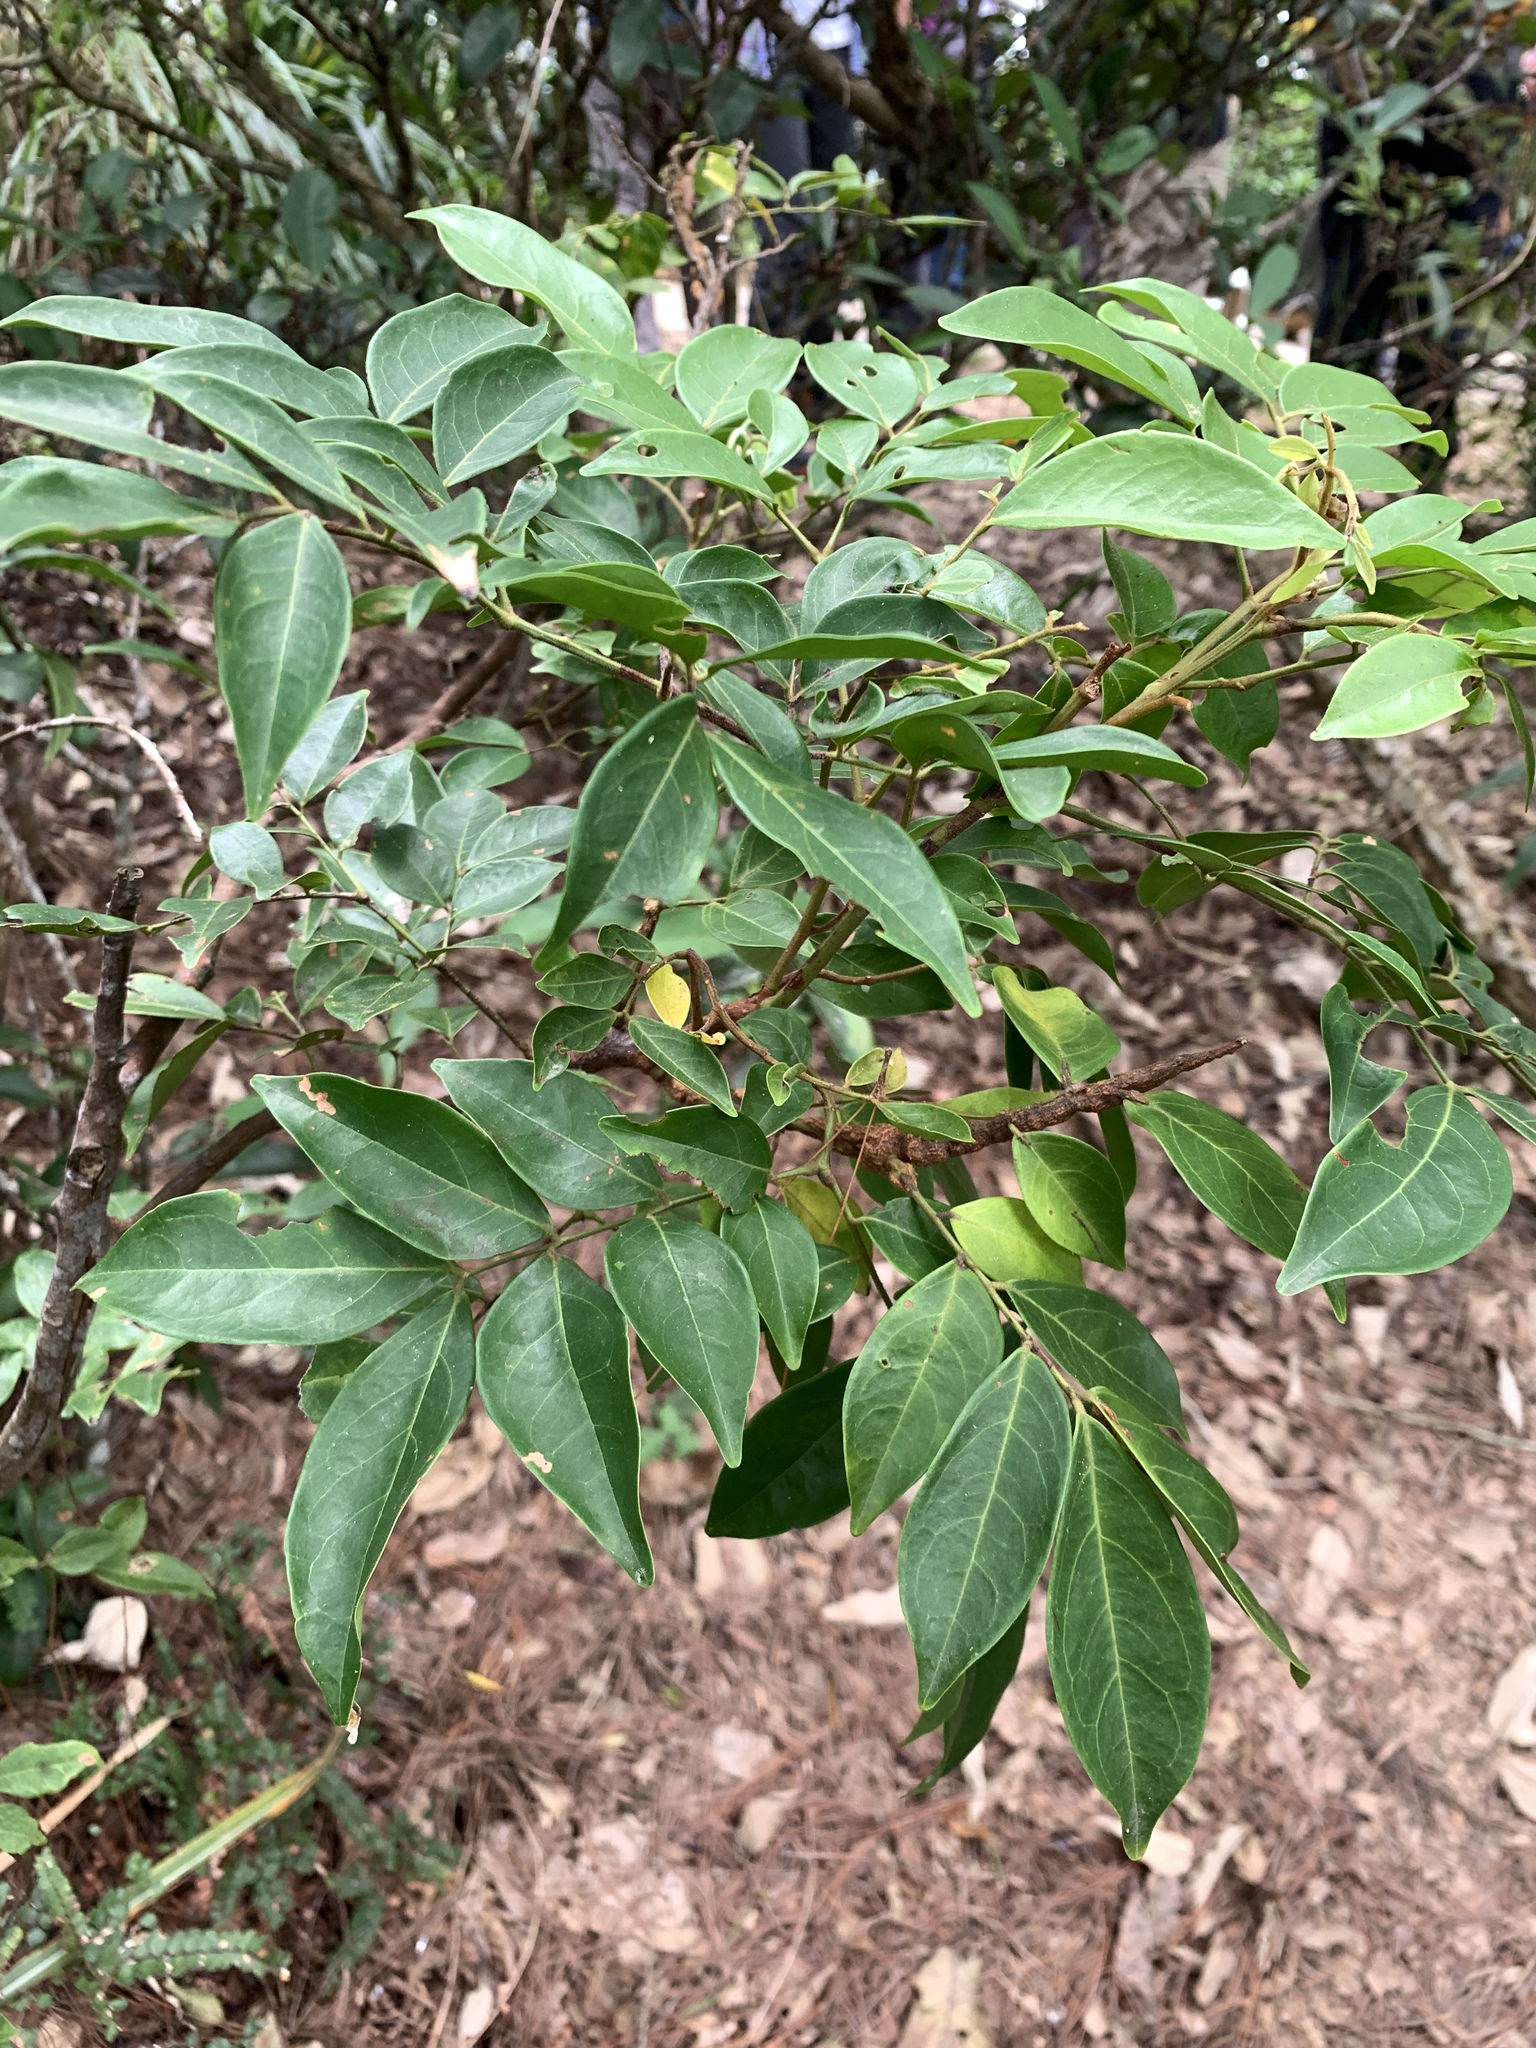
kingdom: Plantae
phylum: Tracheophyta
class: Magnoliopsida
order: Fabales
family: Fabaceae
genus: Archidendron
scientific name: Archidendron lucidum
